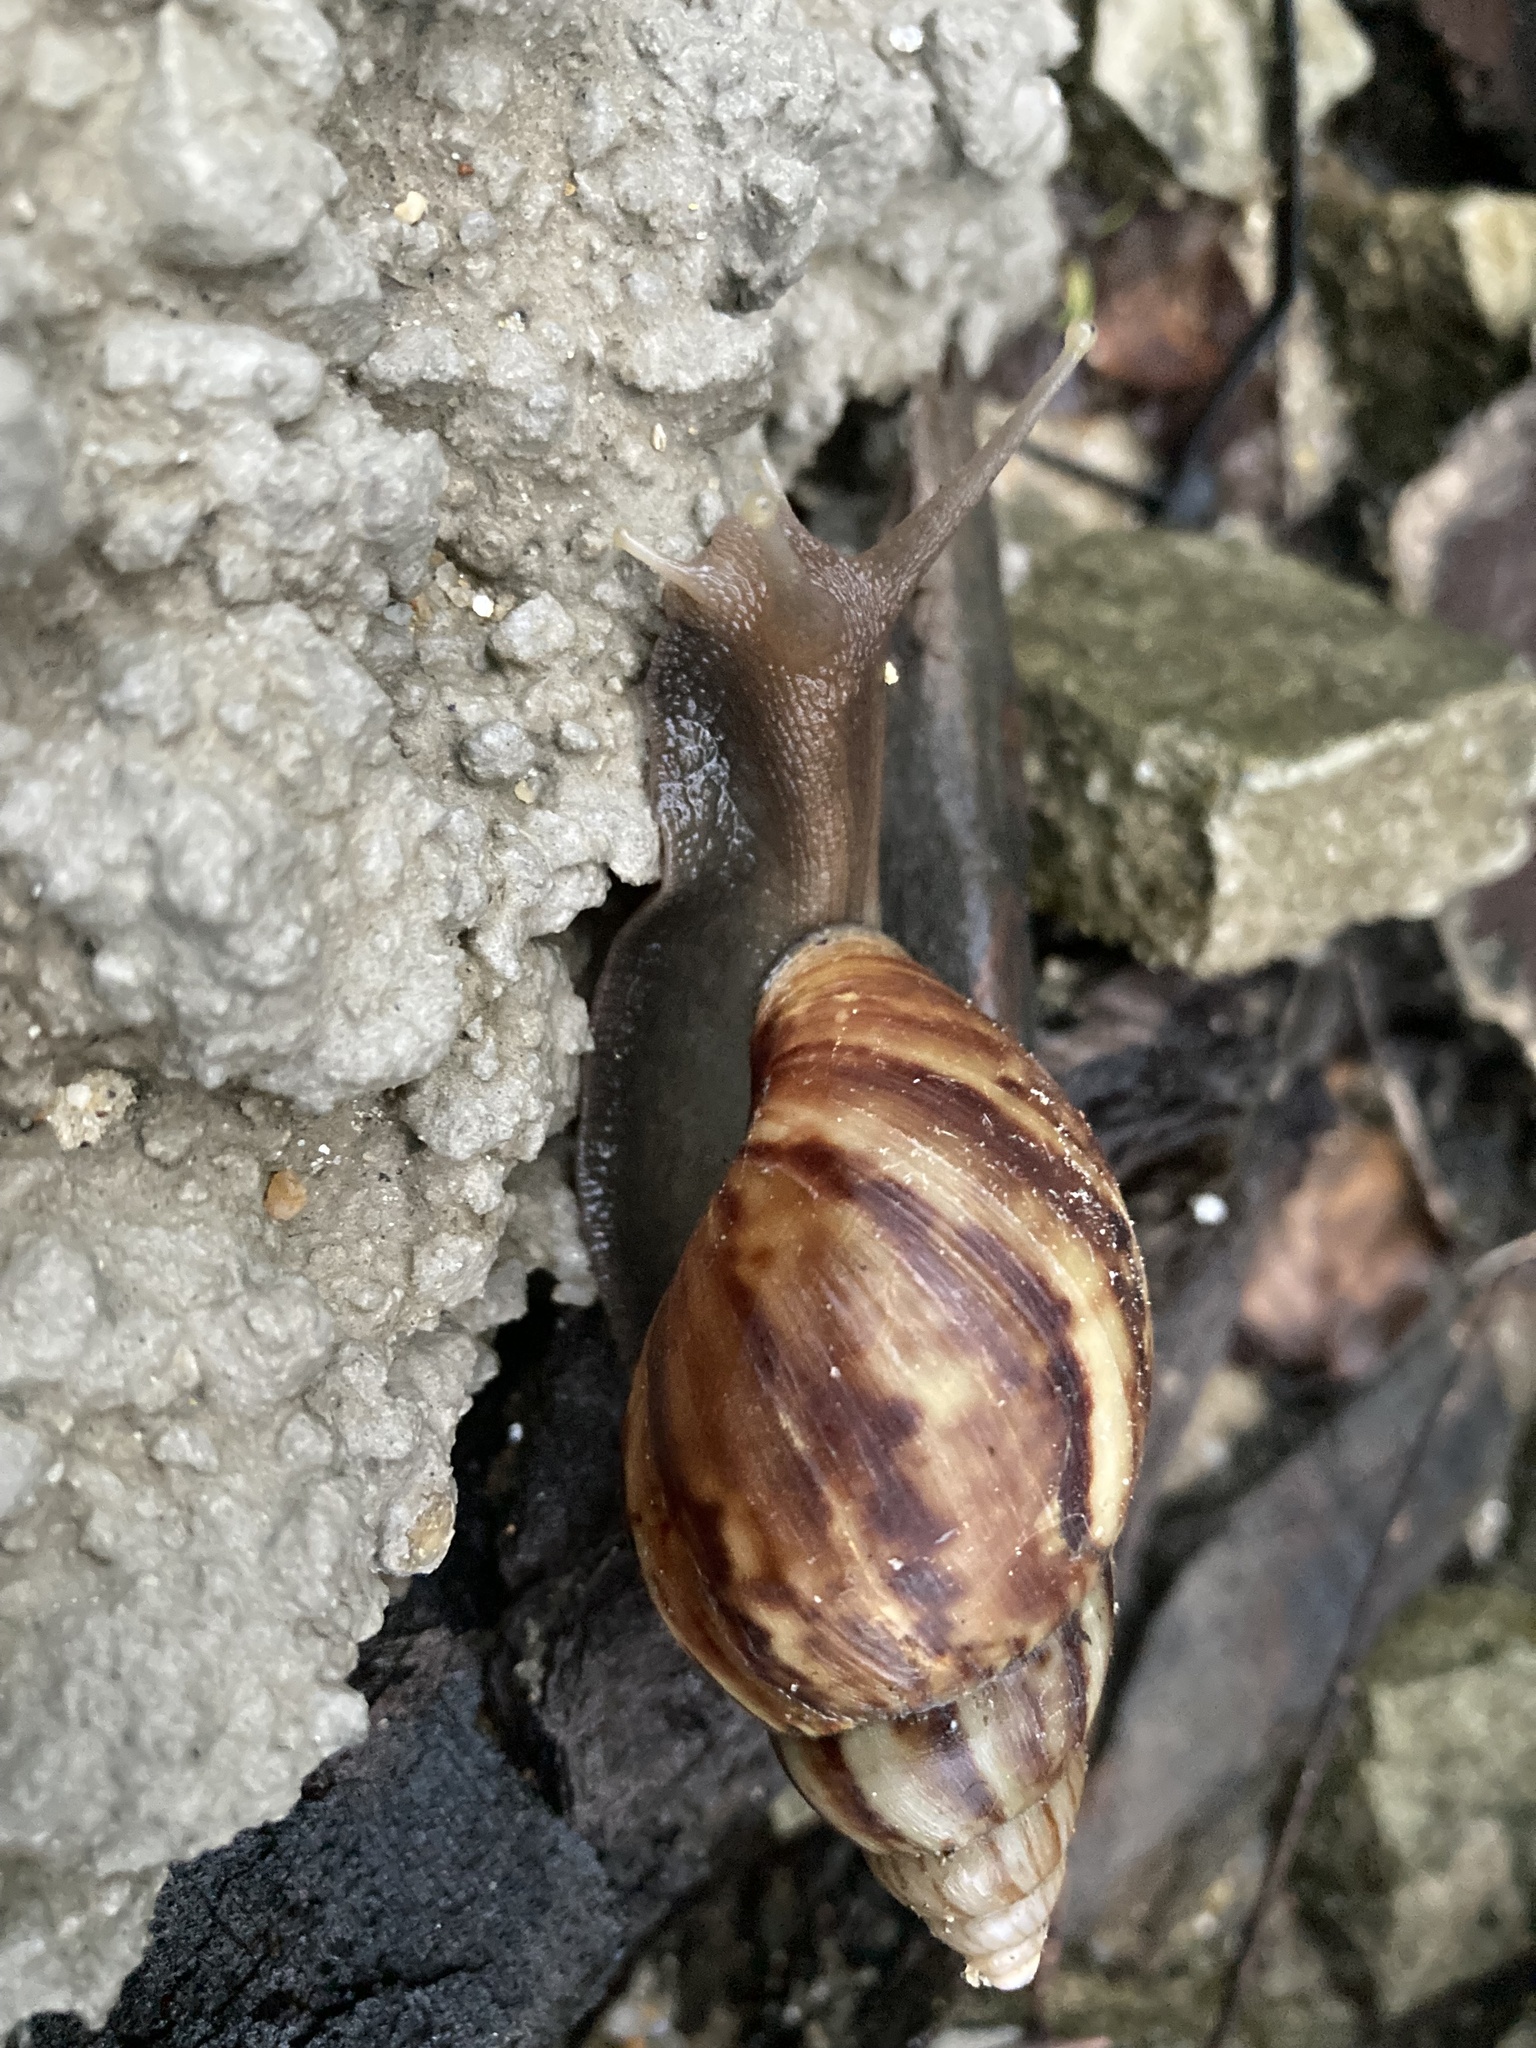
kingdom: Animalia
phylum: Mollusca
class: Gastropoda
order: Stylommatophora
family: Achatinidae
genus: Lissachatina
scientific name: Lissachatina fulica
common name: Giant african snail
